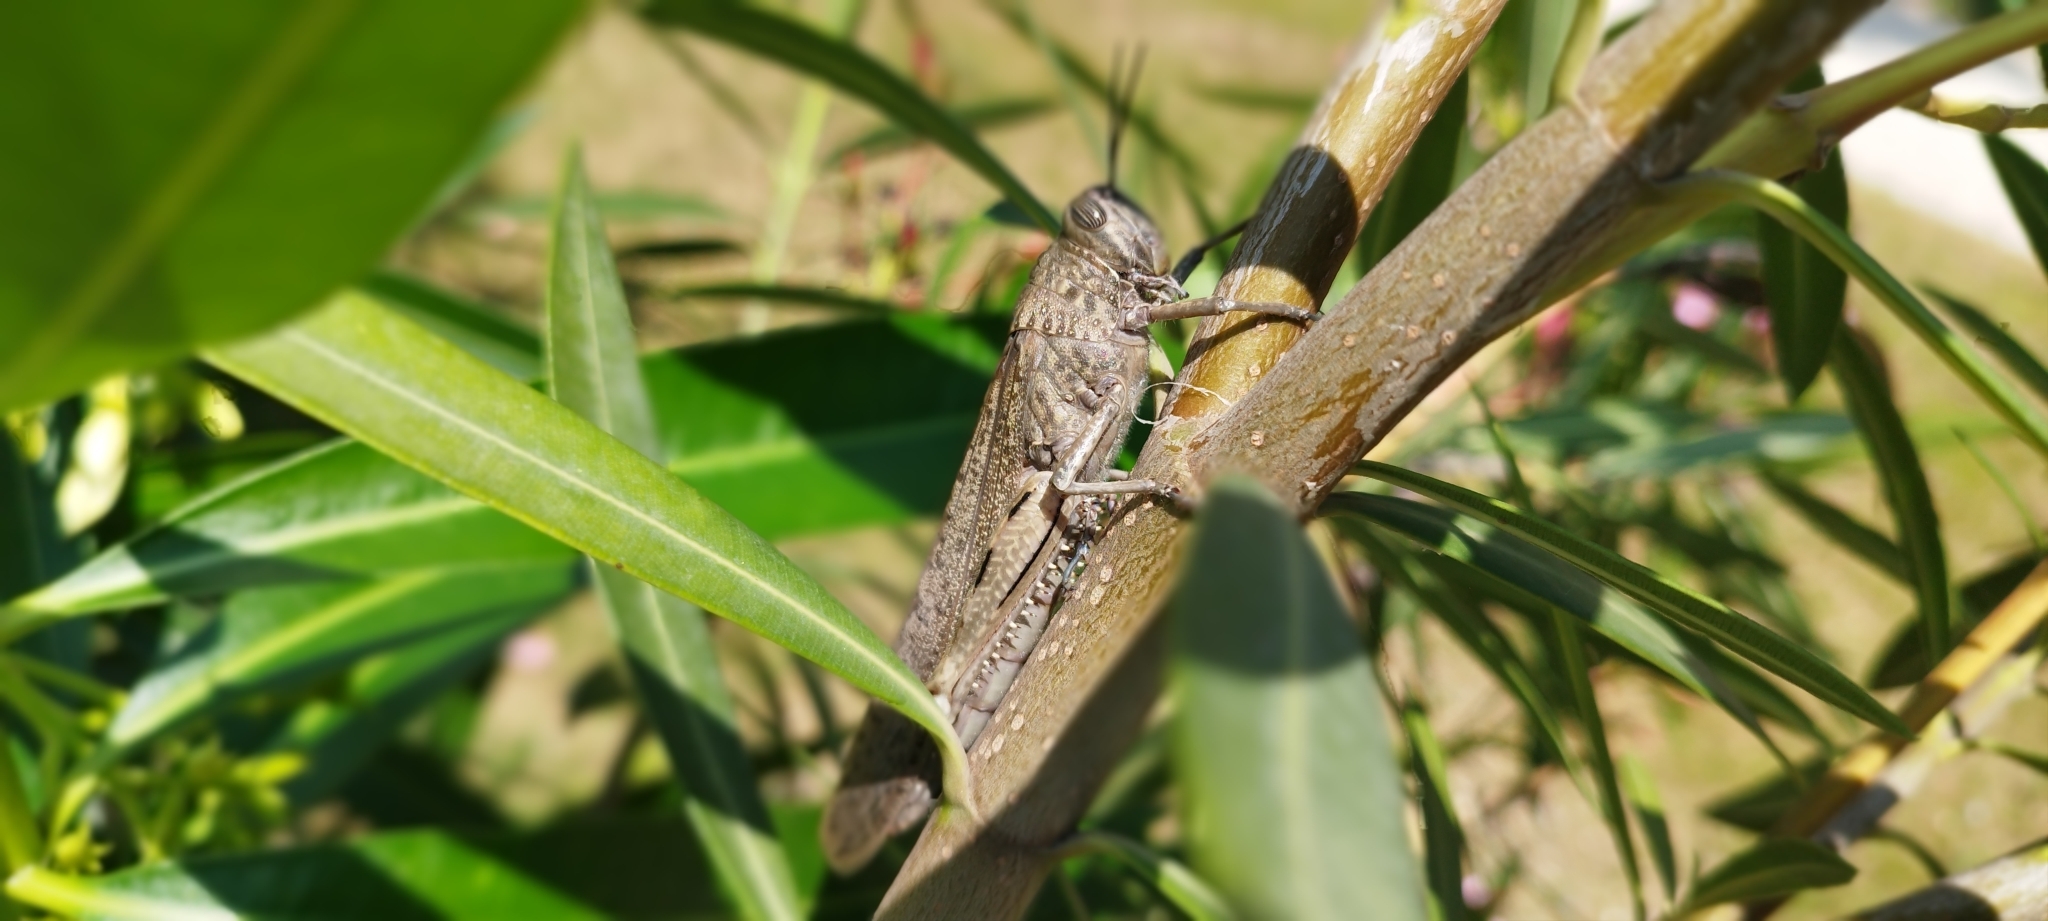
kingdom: Animalia
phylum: Arthropoda
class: Insecta
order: Orthoptera
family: Acrididae
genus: Anacridium
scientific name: Anacridium aegyptium
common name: Egyptian grasshopper
